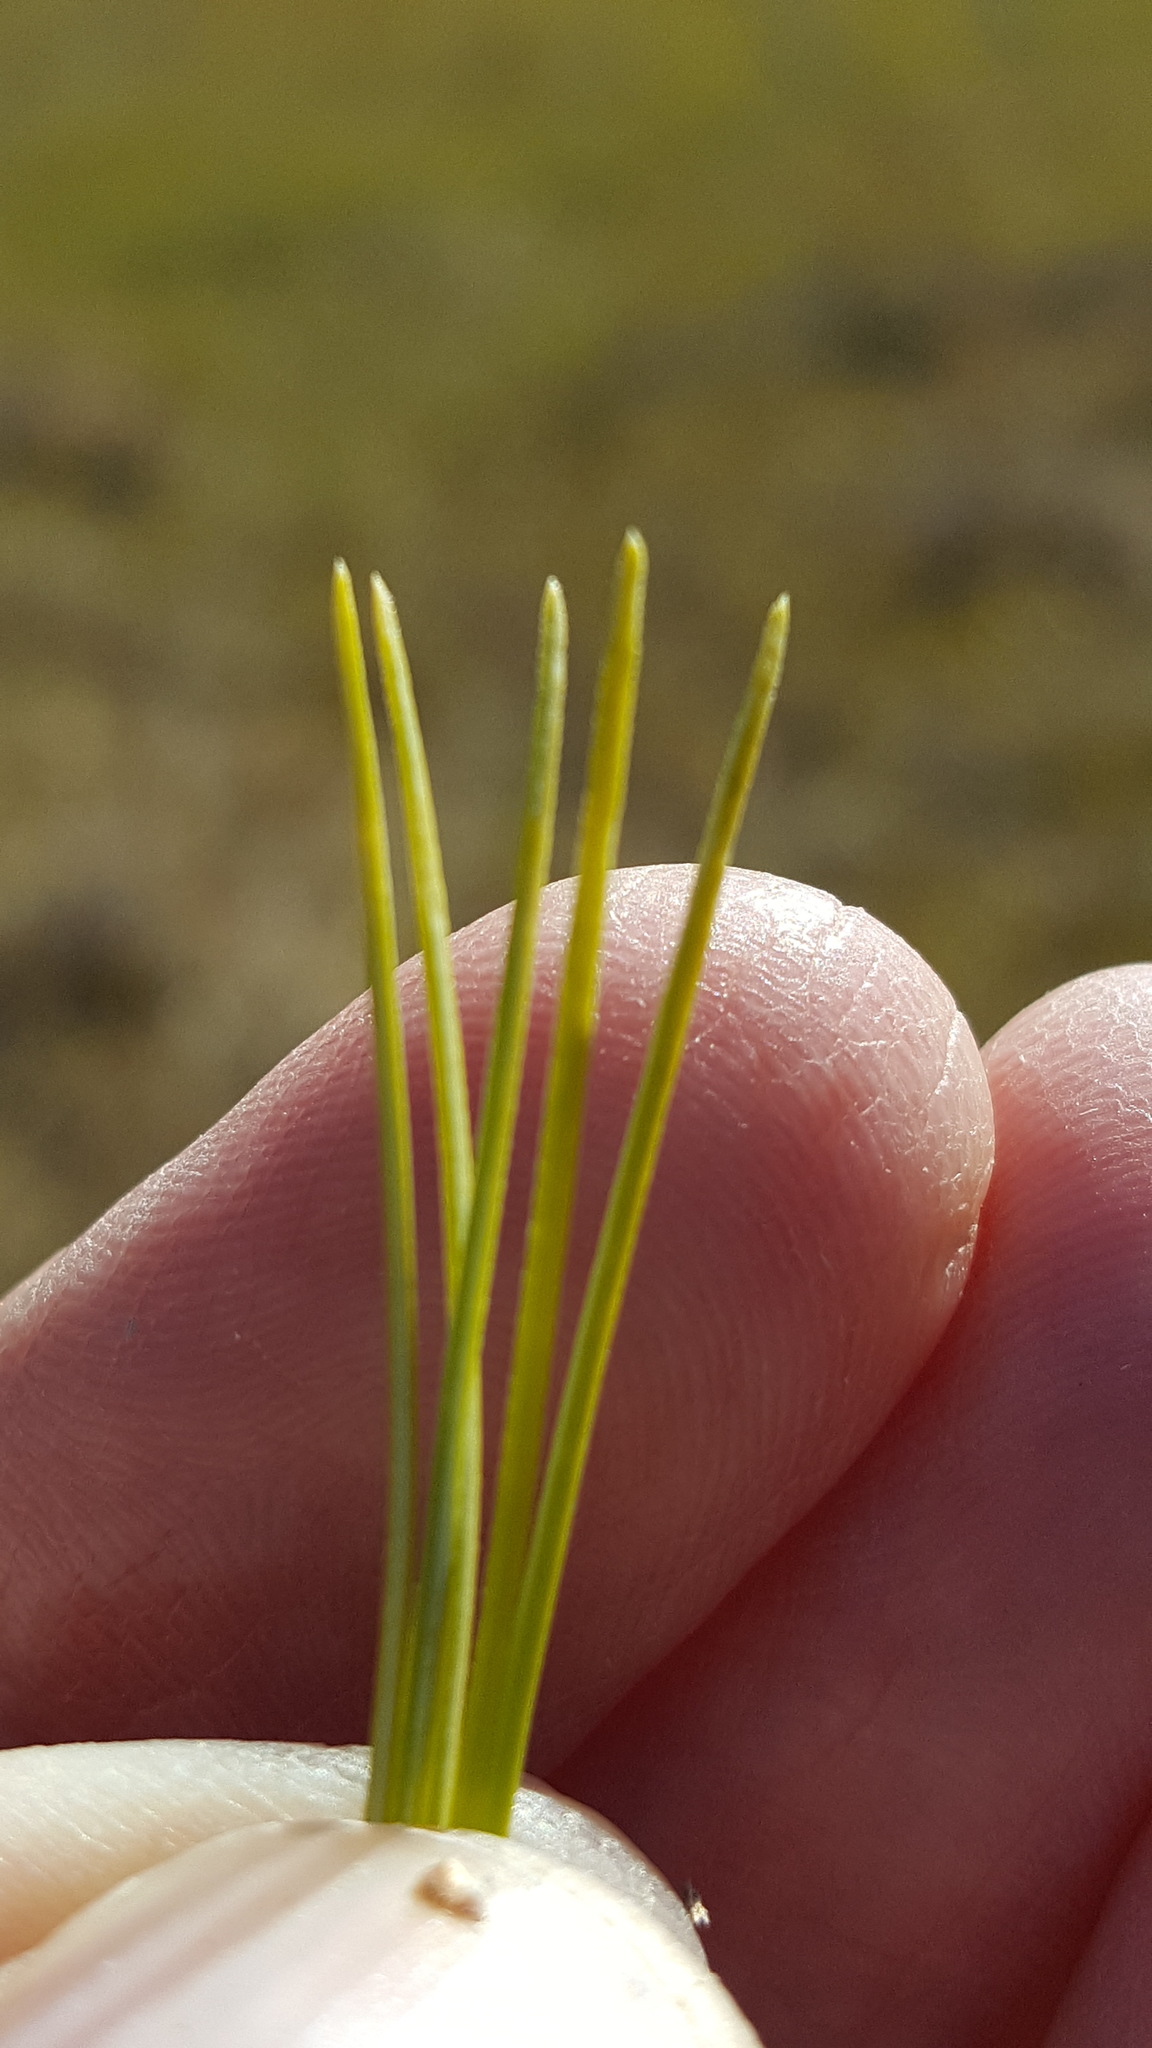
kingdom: Plantae
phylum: Tracheophyta
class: Pinopsida
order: Pinales
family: Pinaceae
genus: Pinus
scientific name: Pinus strobus
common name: Weymouth pine
